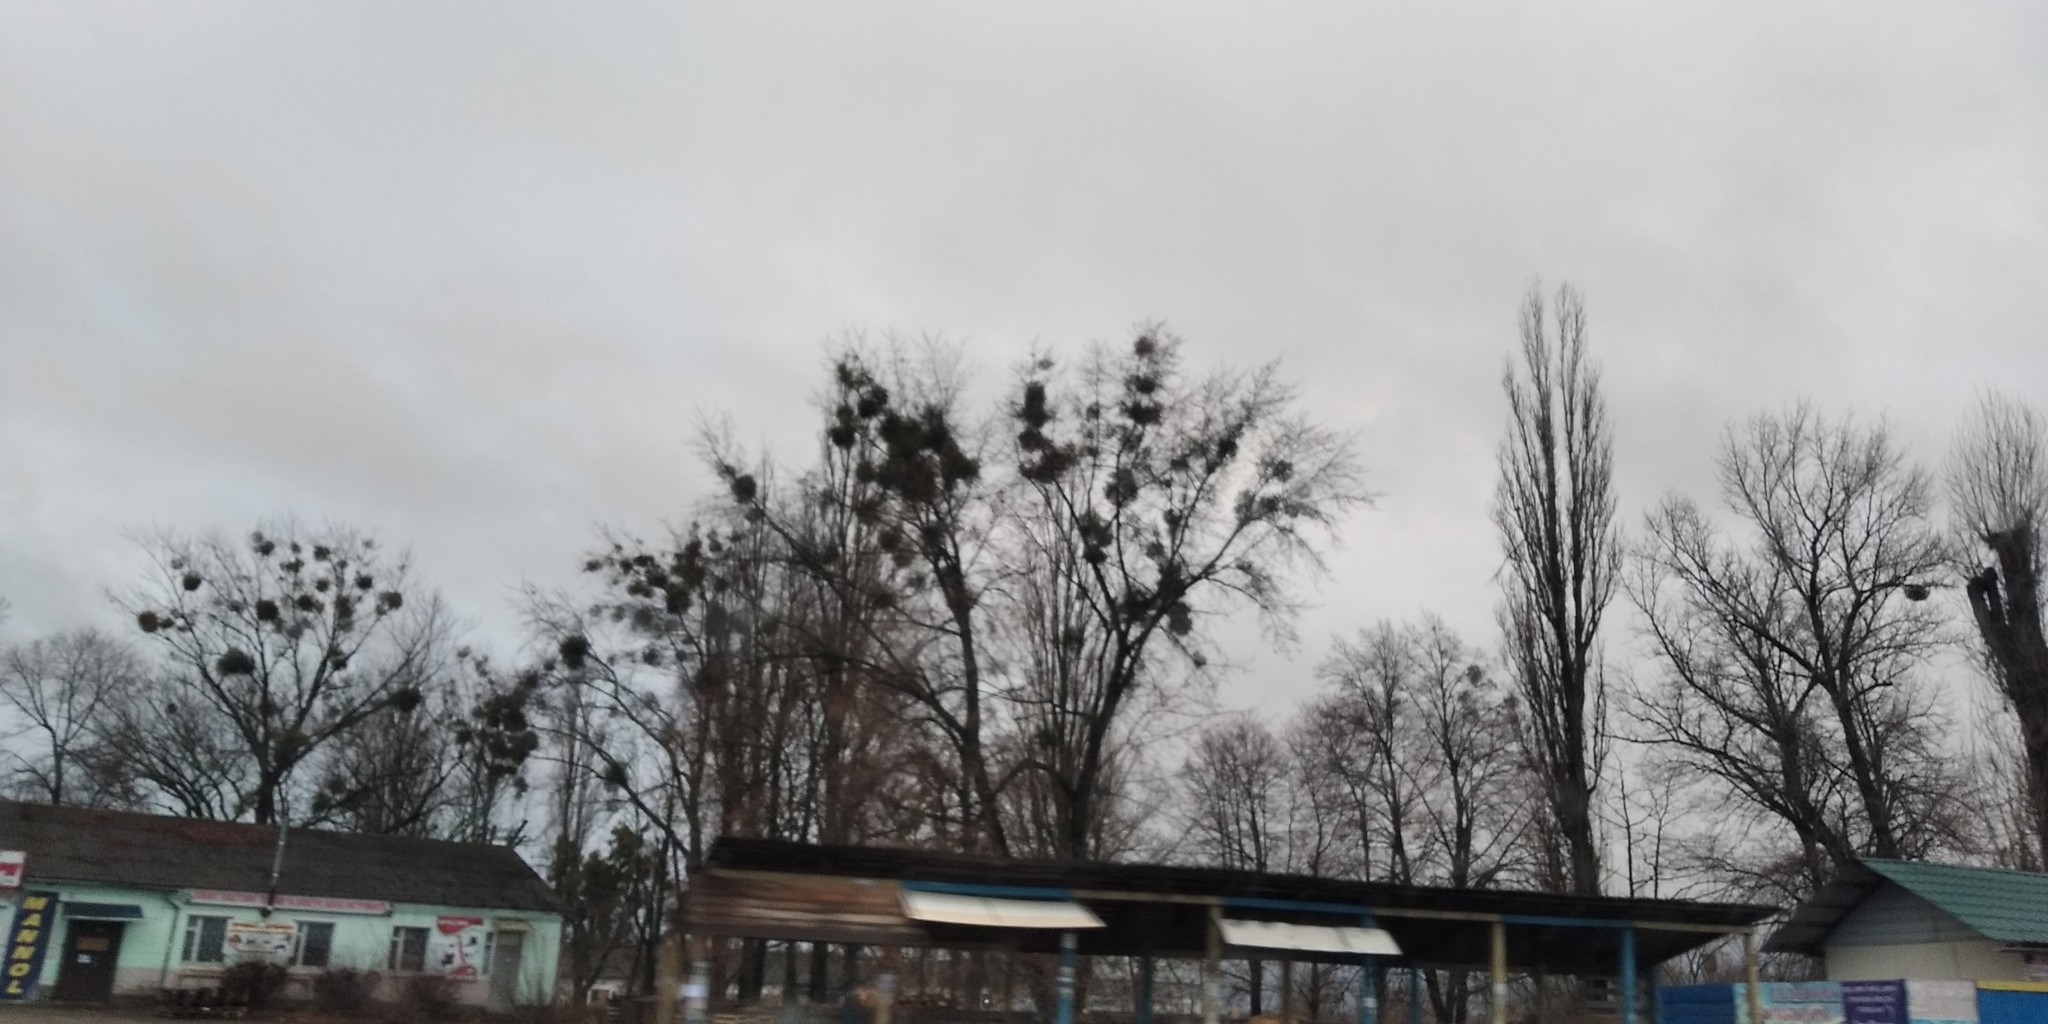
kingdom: Plantae
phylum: Tracheophyta
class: Magnoliopsida
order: Santalales
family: Viscaceae
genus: Viscum
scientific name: Viscum album
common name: Mistletoe
